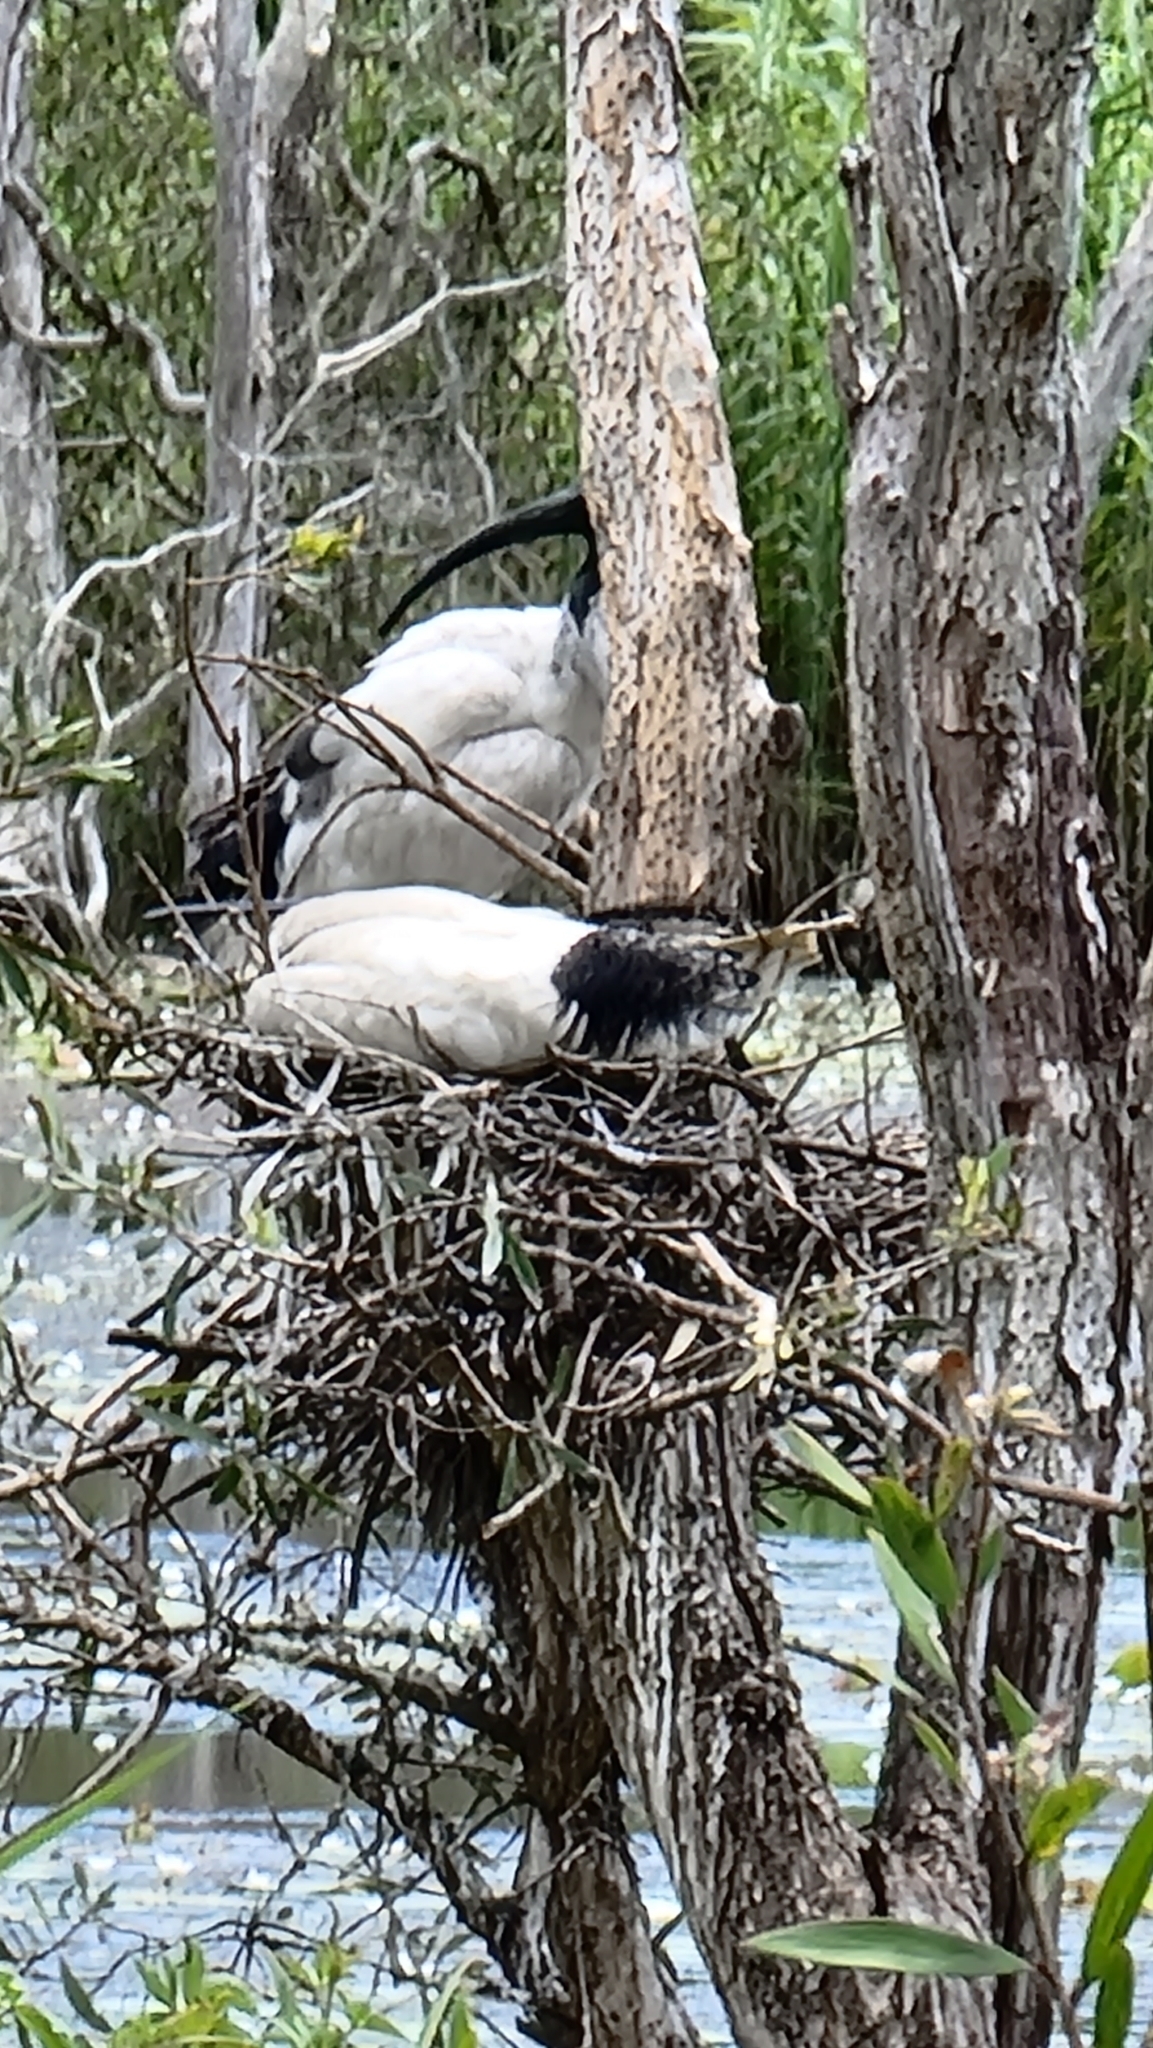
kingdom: Animalia
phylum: Chordata
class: Aves
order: Pelecaniformes
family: Threskiornithidae
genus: Threskiornis
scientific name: Threskiornis molucca
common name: Australian white ibis
